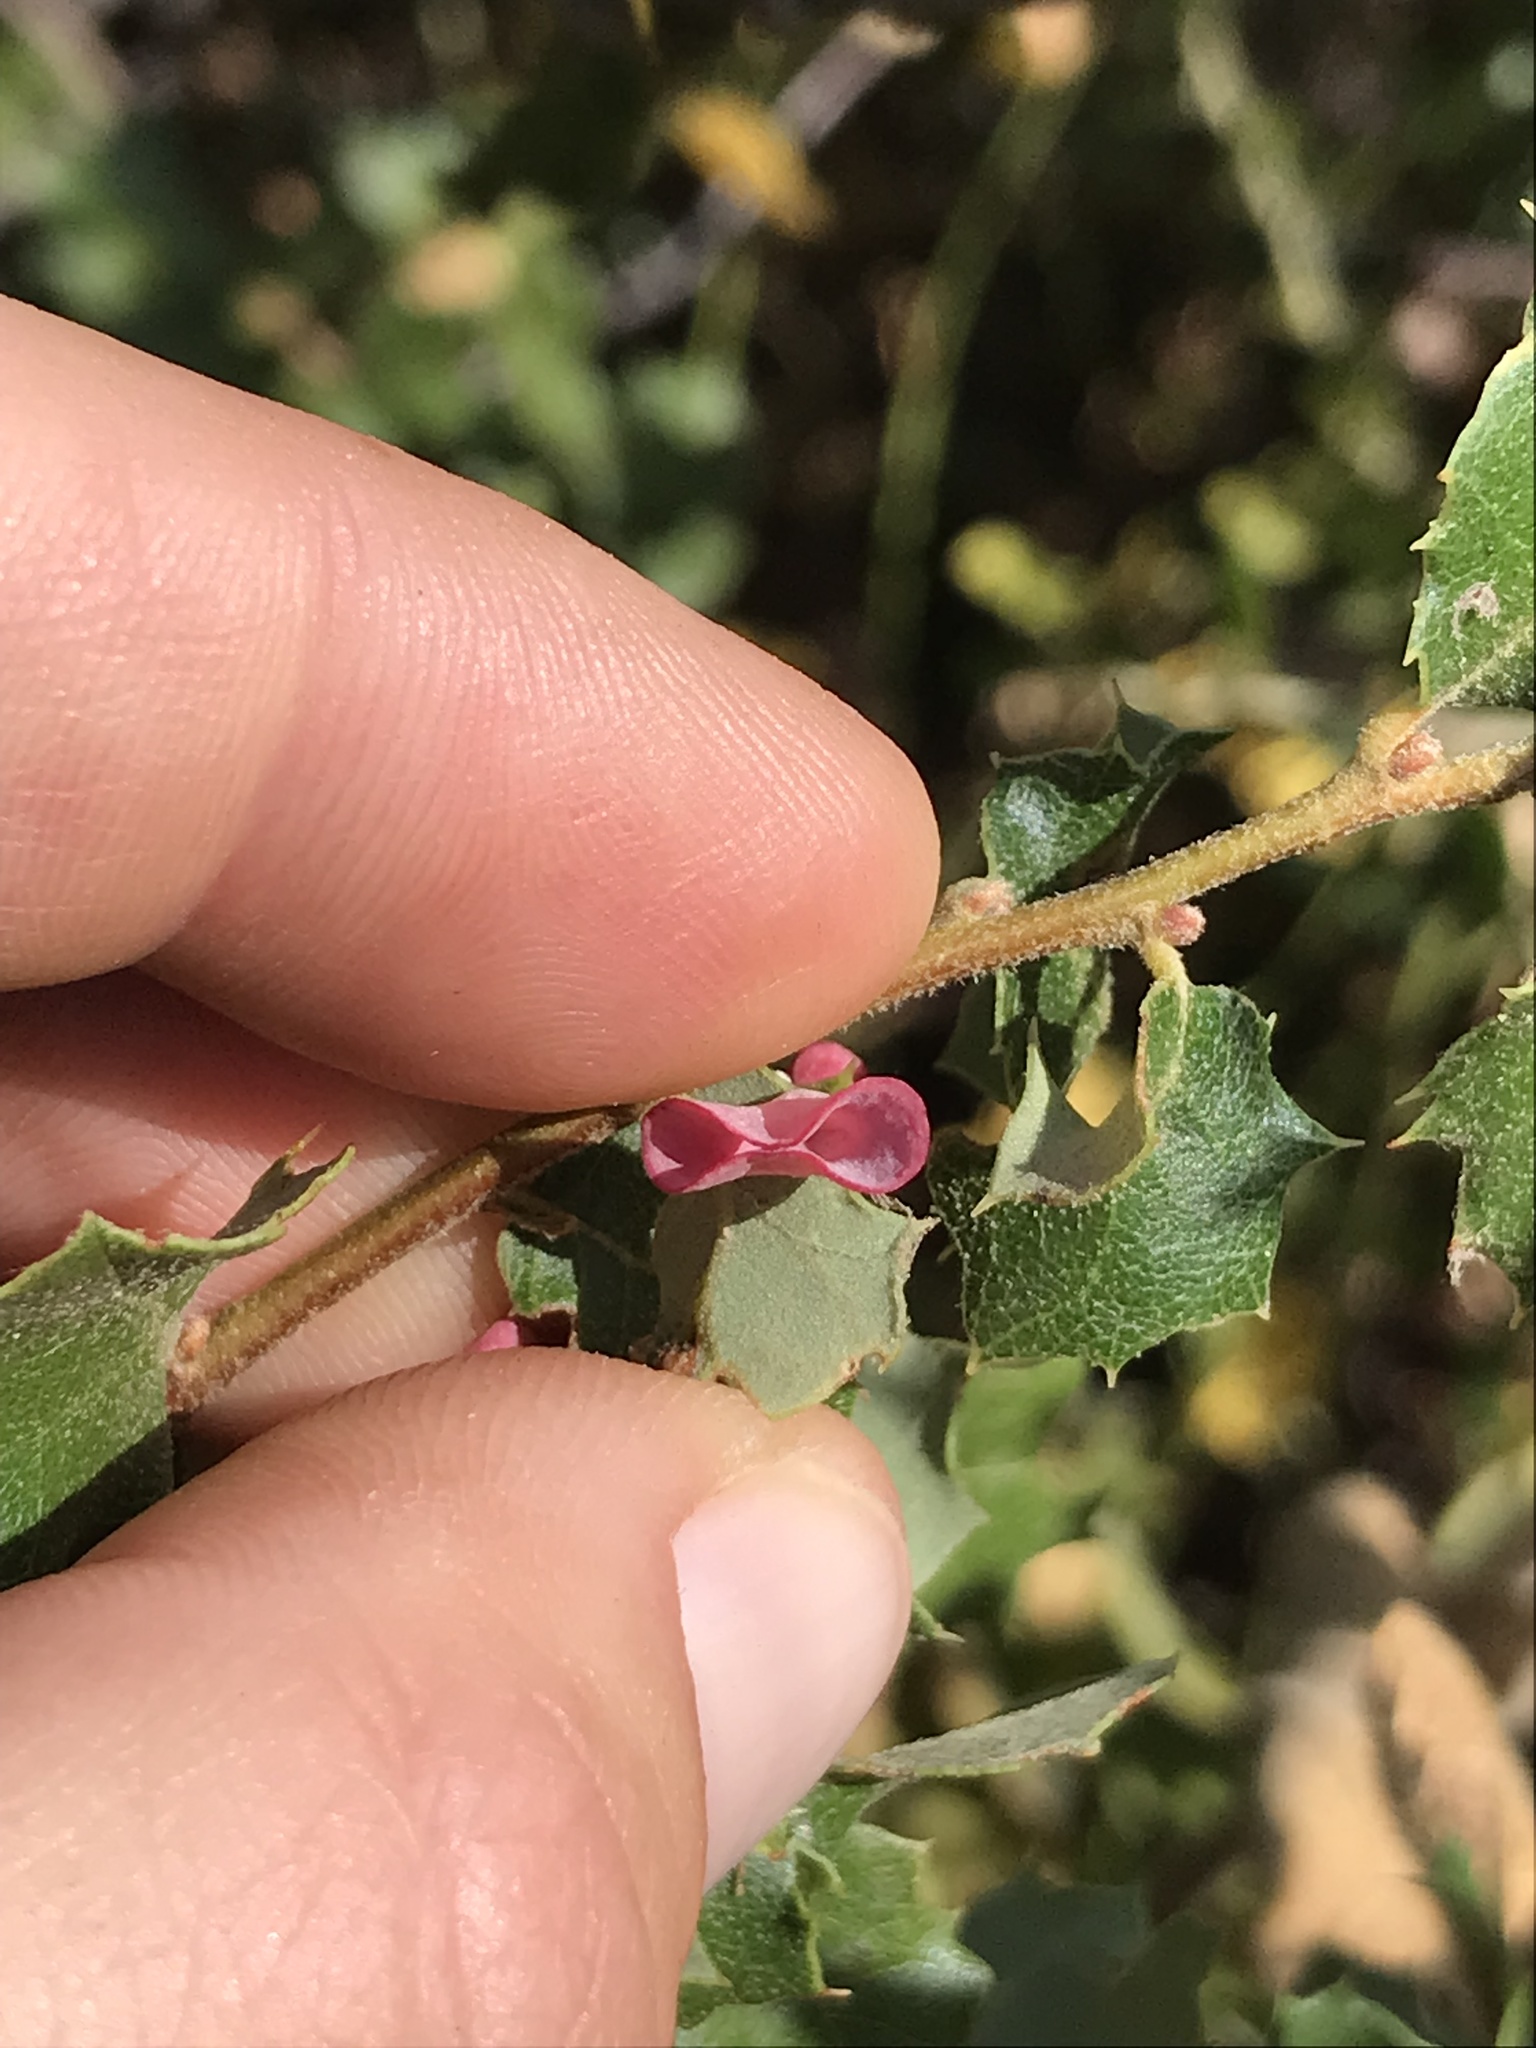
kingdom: Animalia
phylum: Arthropoda
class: Insecta
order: Hymenoptera
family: Cynipidae
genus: Andricus
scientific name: Andricus
